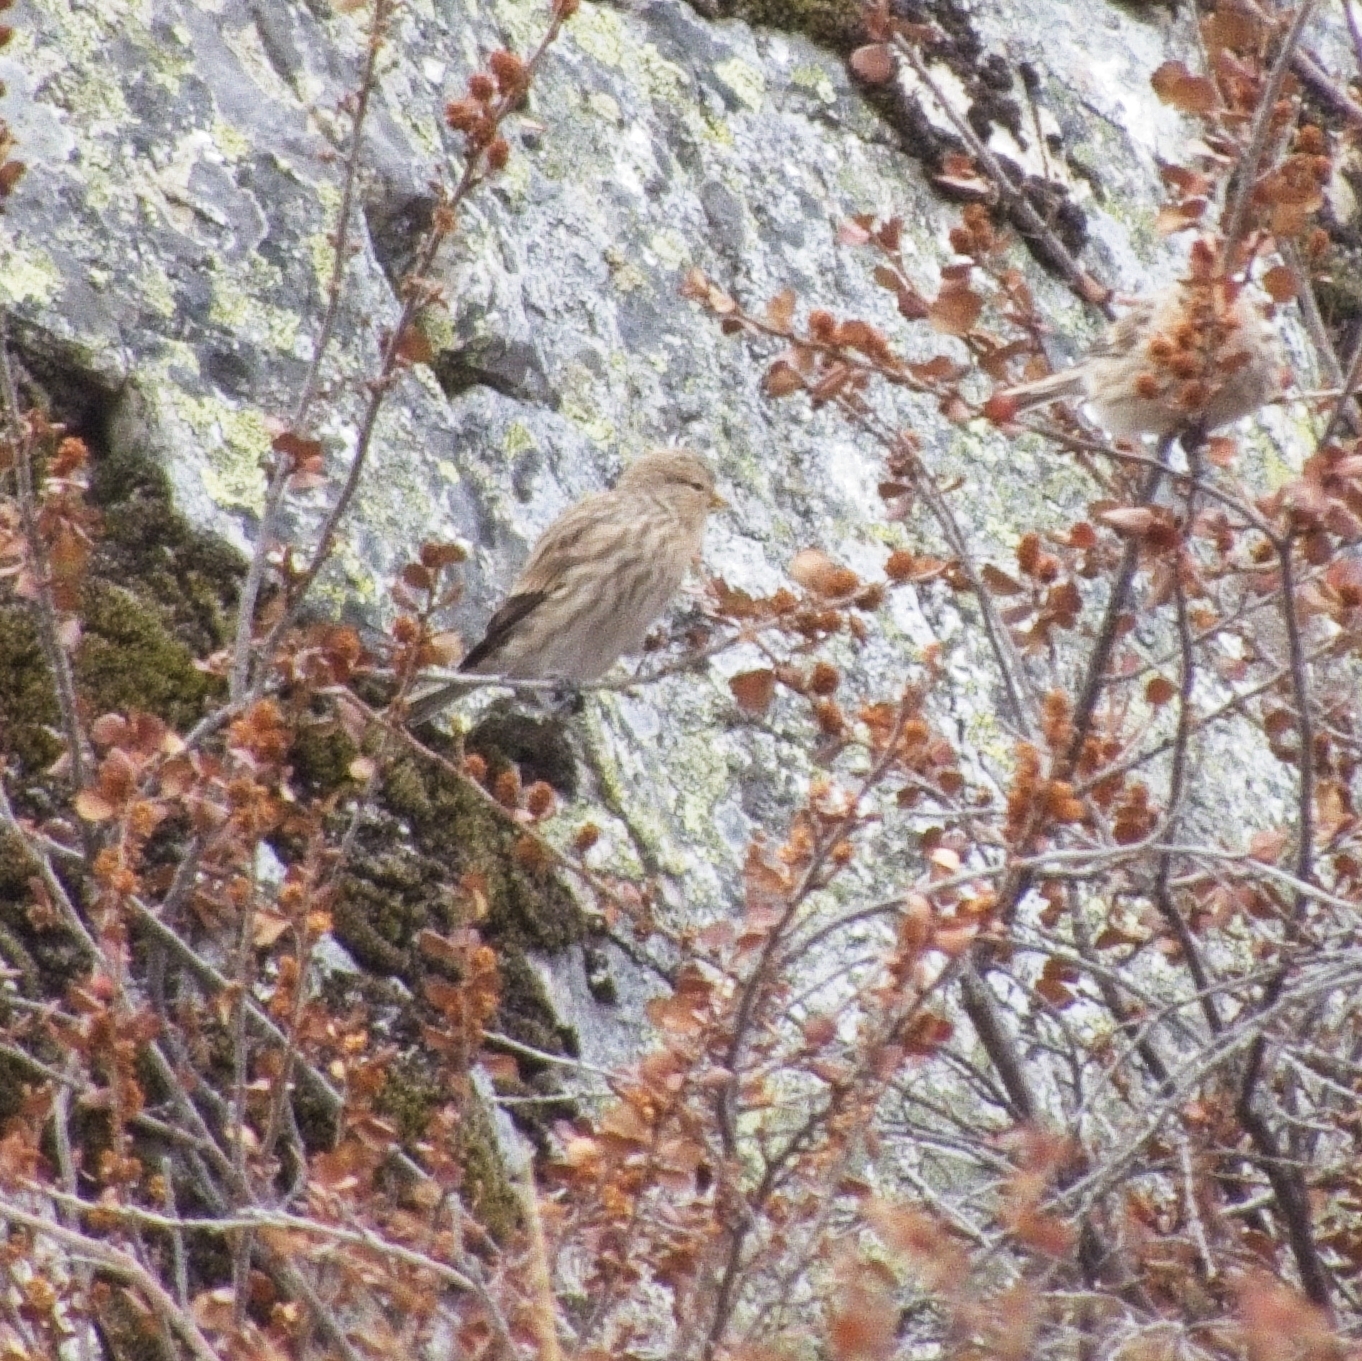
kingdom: Animalia
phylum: Chordata
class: Aves
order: Passeriformes
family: Fringillidae
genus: Linaria
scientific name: Linaria flavirostris
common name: Twite
